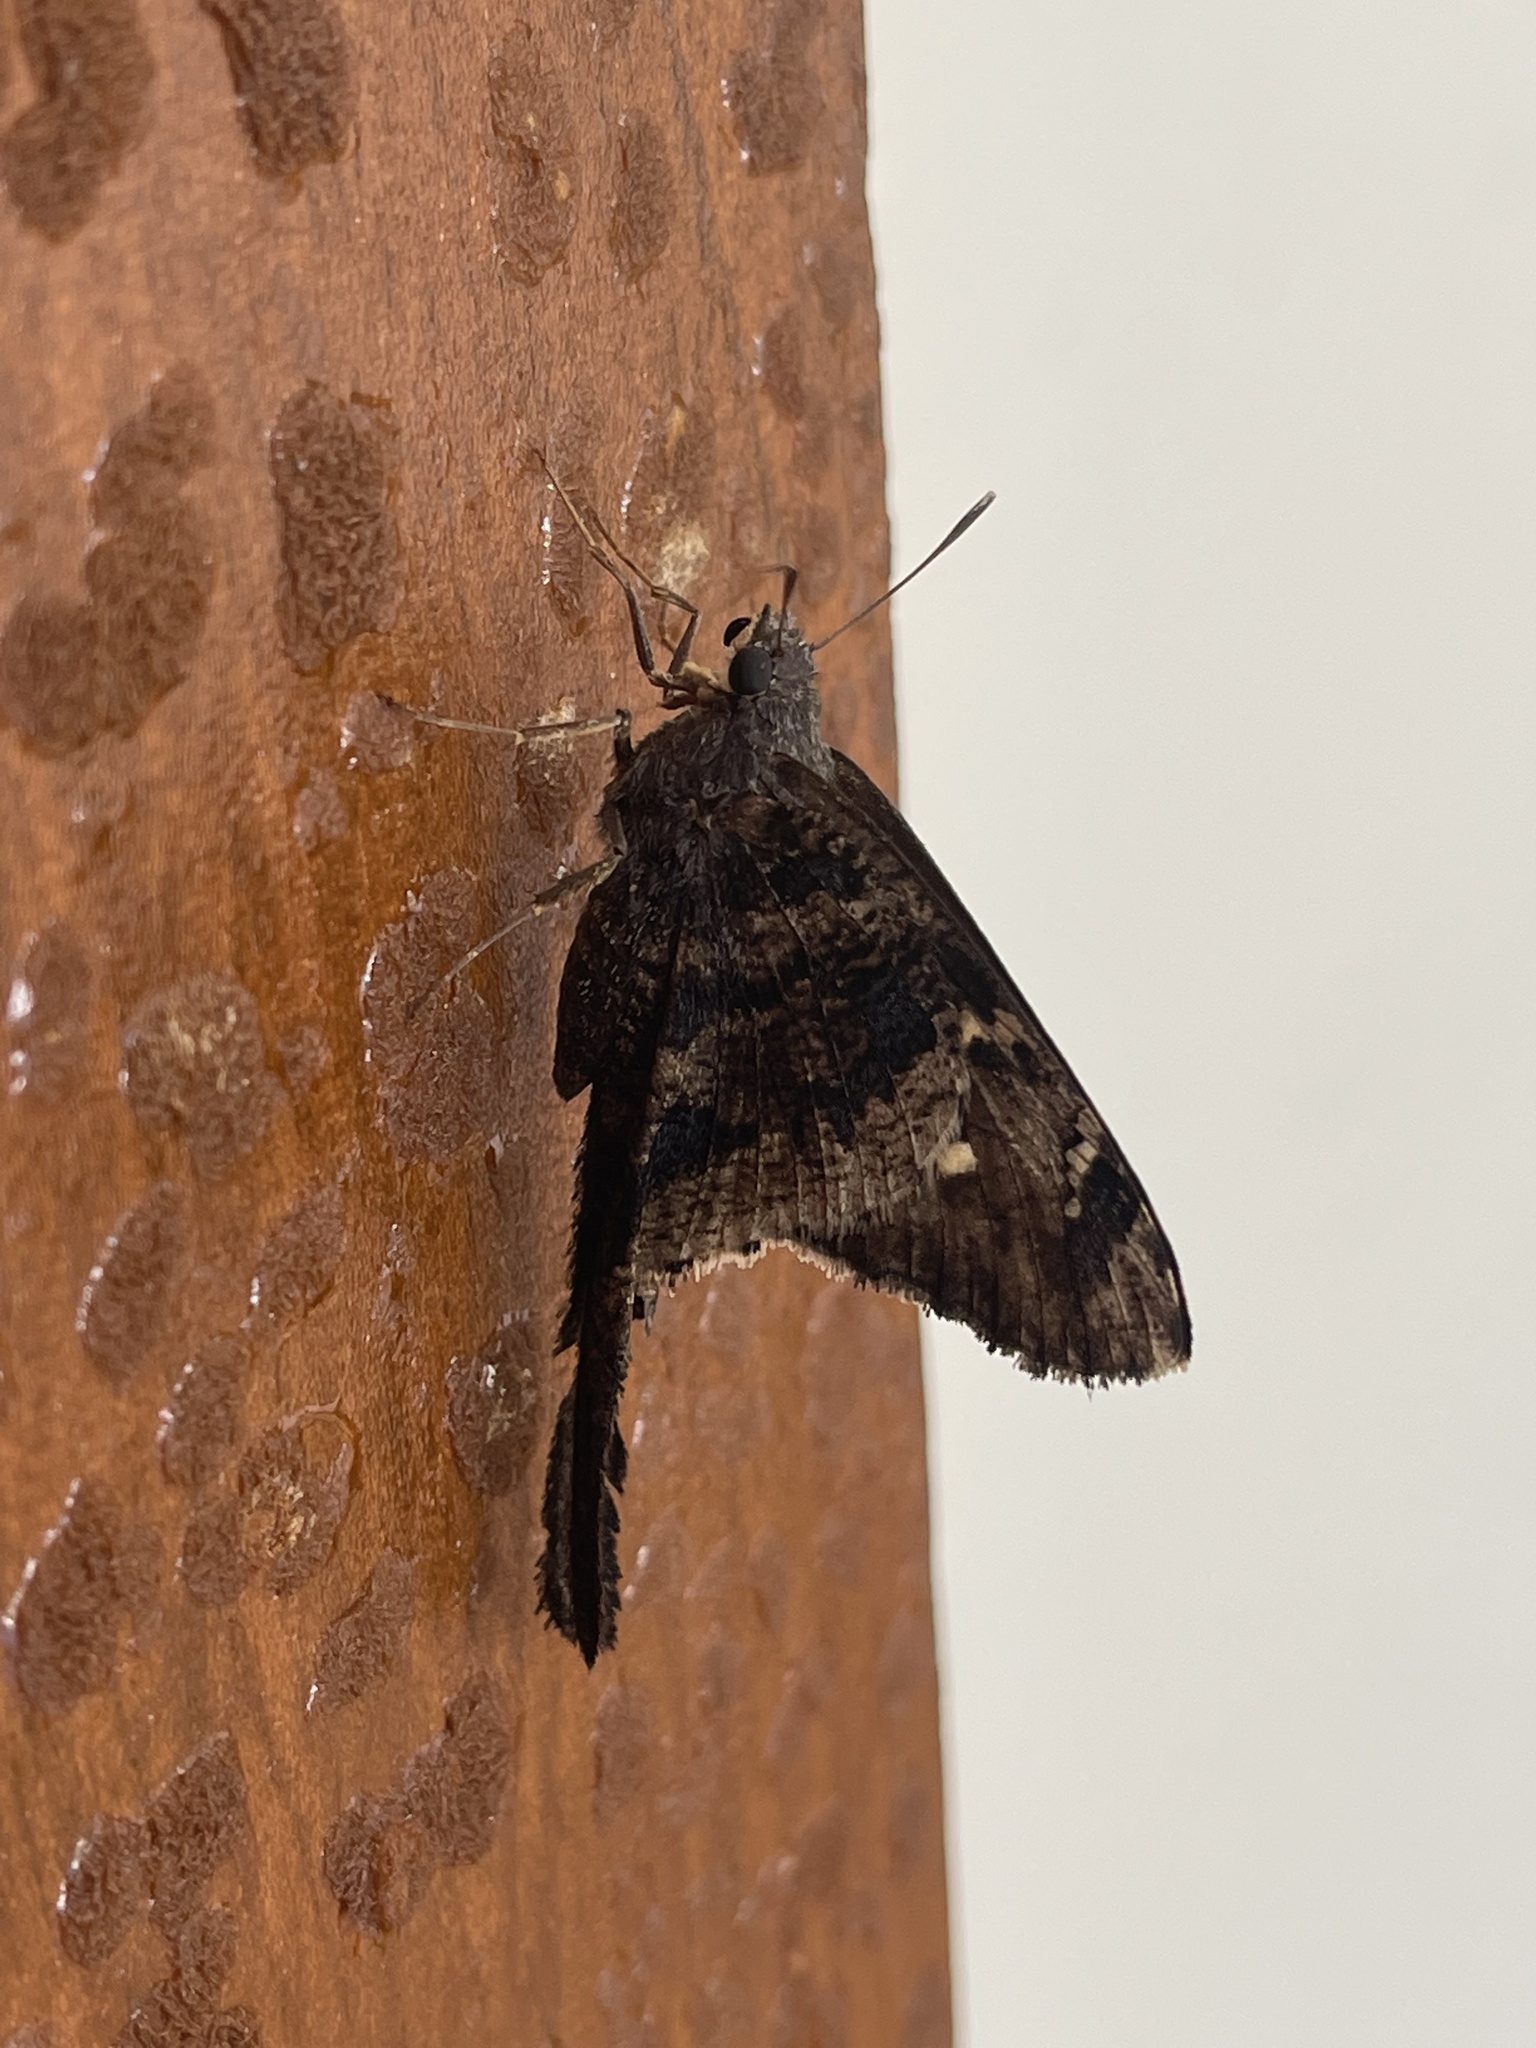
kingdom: Animalia
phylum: Arthropoda
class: Insecta
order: Lepidoptera
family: Hesperiidae
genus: Typhedanus
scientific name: Typhedanus undulatus
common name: Mottled longtail
